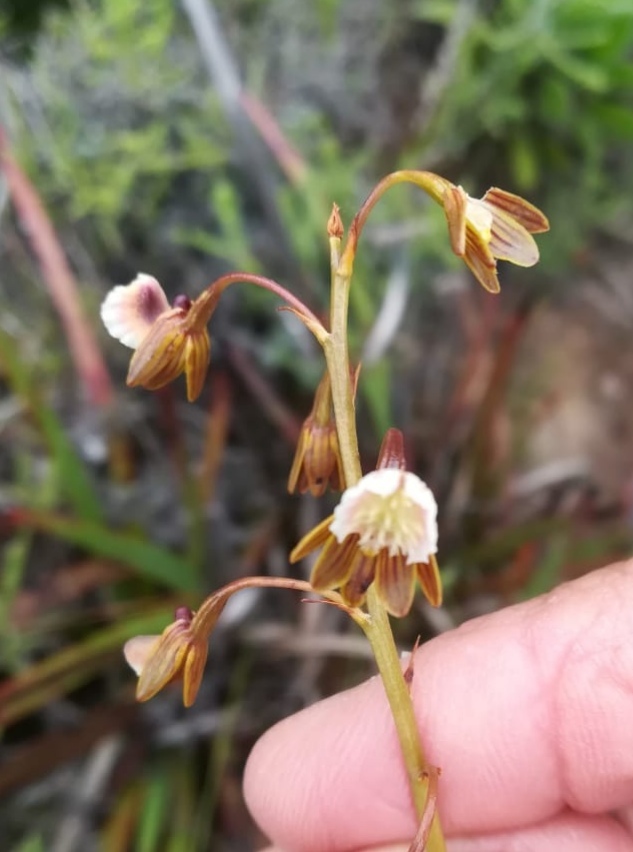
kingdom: Plantae
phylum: Tracheophyta
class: Liliopsida
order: Asparagales
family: Orchidaceae
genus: Eulophia
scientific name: Eulophia bolusii
